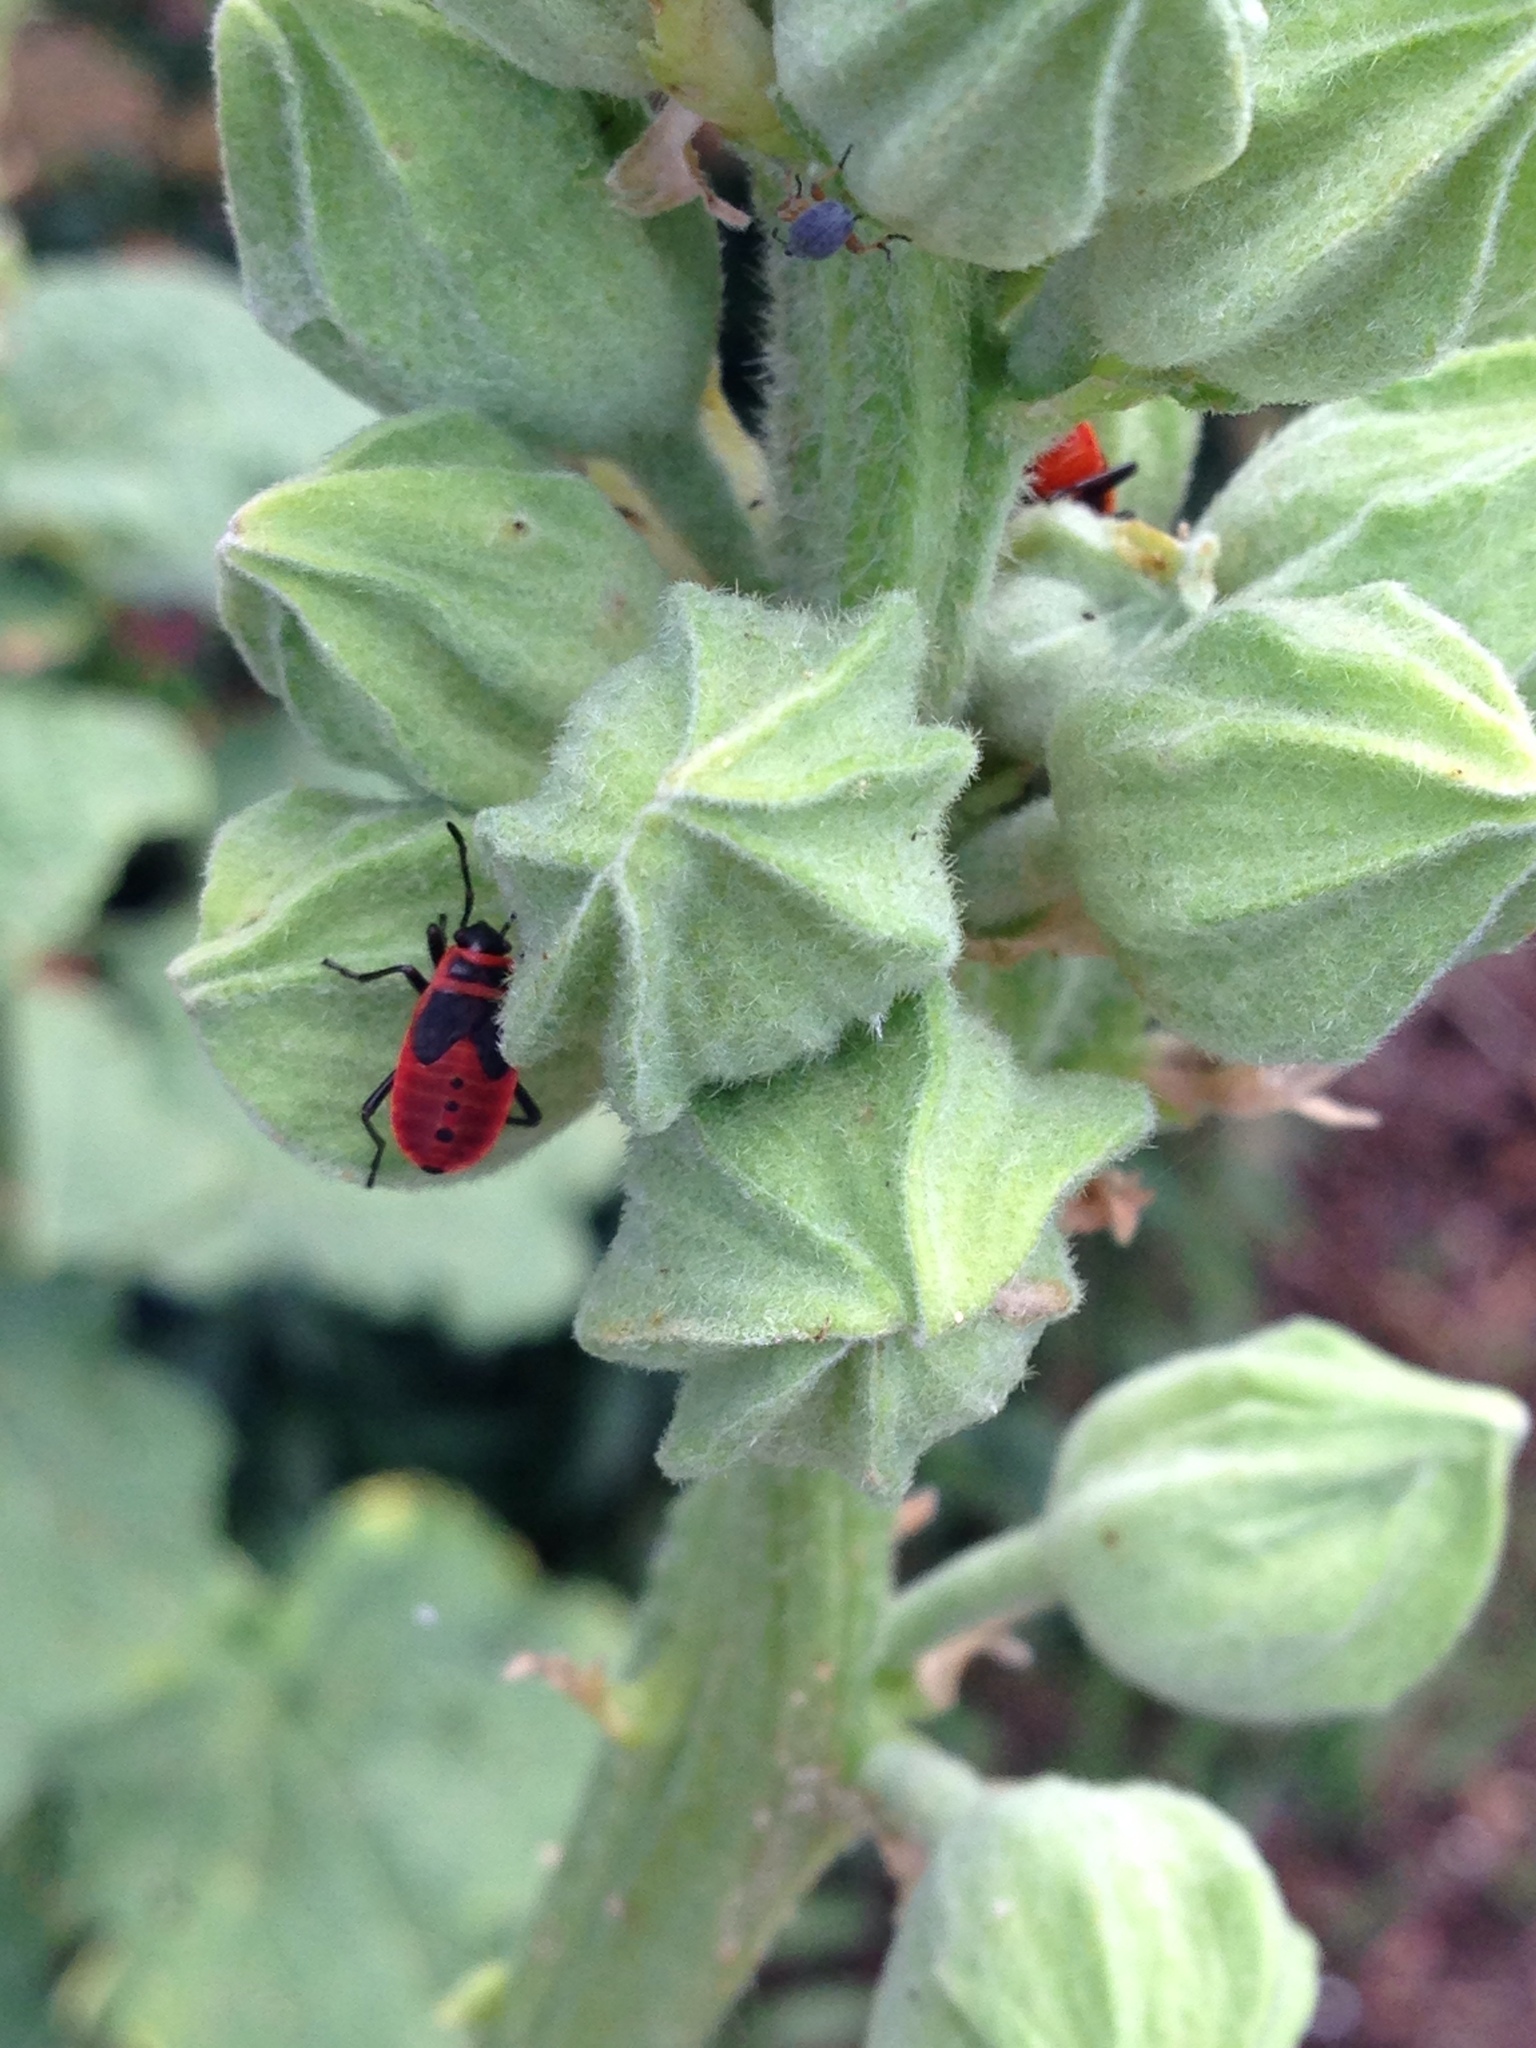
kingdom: Animalia
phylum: Arthropoda
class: Insecta
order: Hemiptera
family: Pyrrhocoridae
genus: Pyrrhocoris
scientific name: Pyrrhocoris apterus
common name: Firebug
